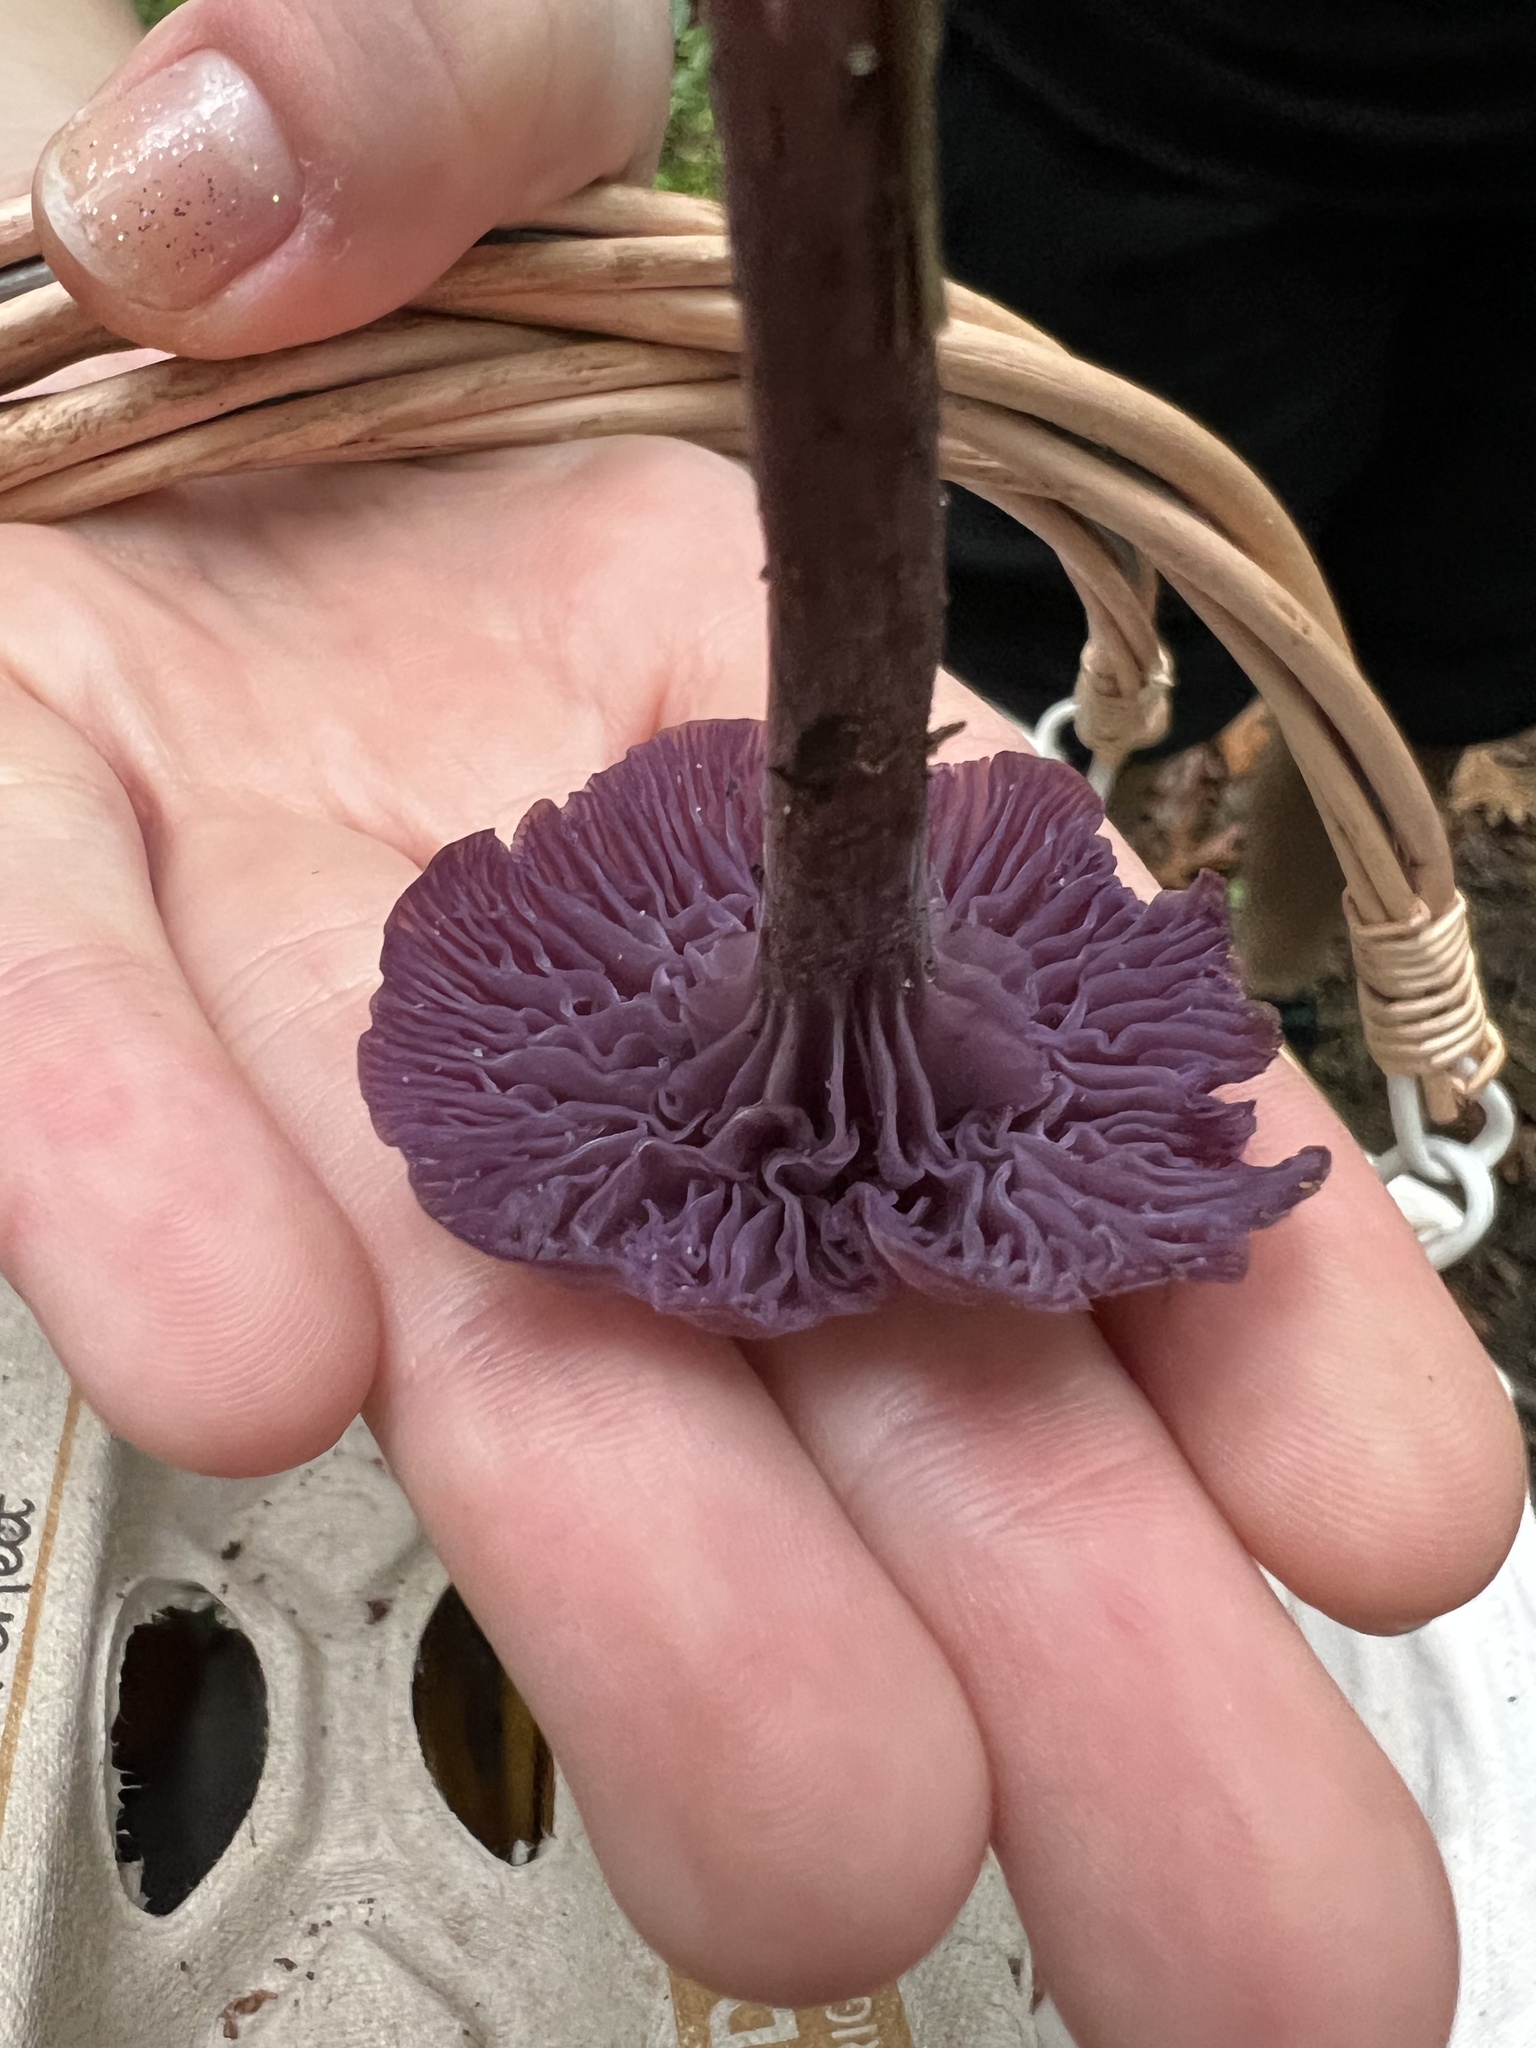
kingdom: Fungi
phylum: Basidiomycota
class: Agaricomycetes
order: Agaricales
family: Hydnangiaceae
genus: Laccaria
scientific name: Laccaria amethystina
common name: Amethyst deceiver
